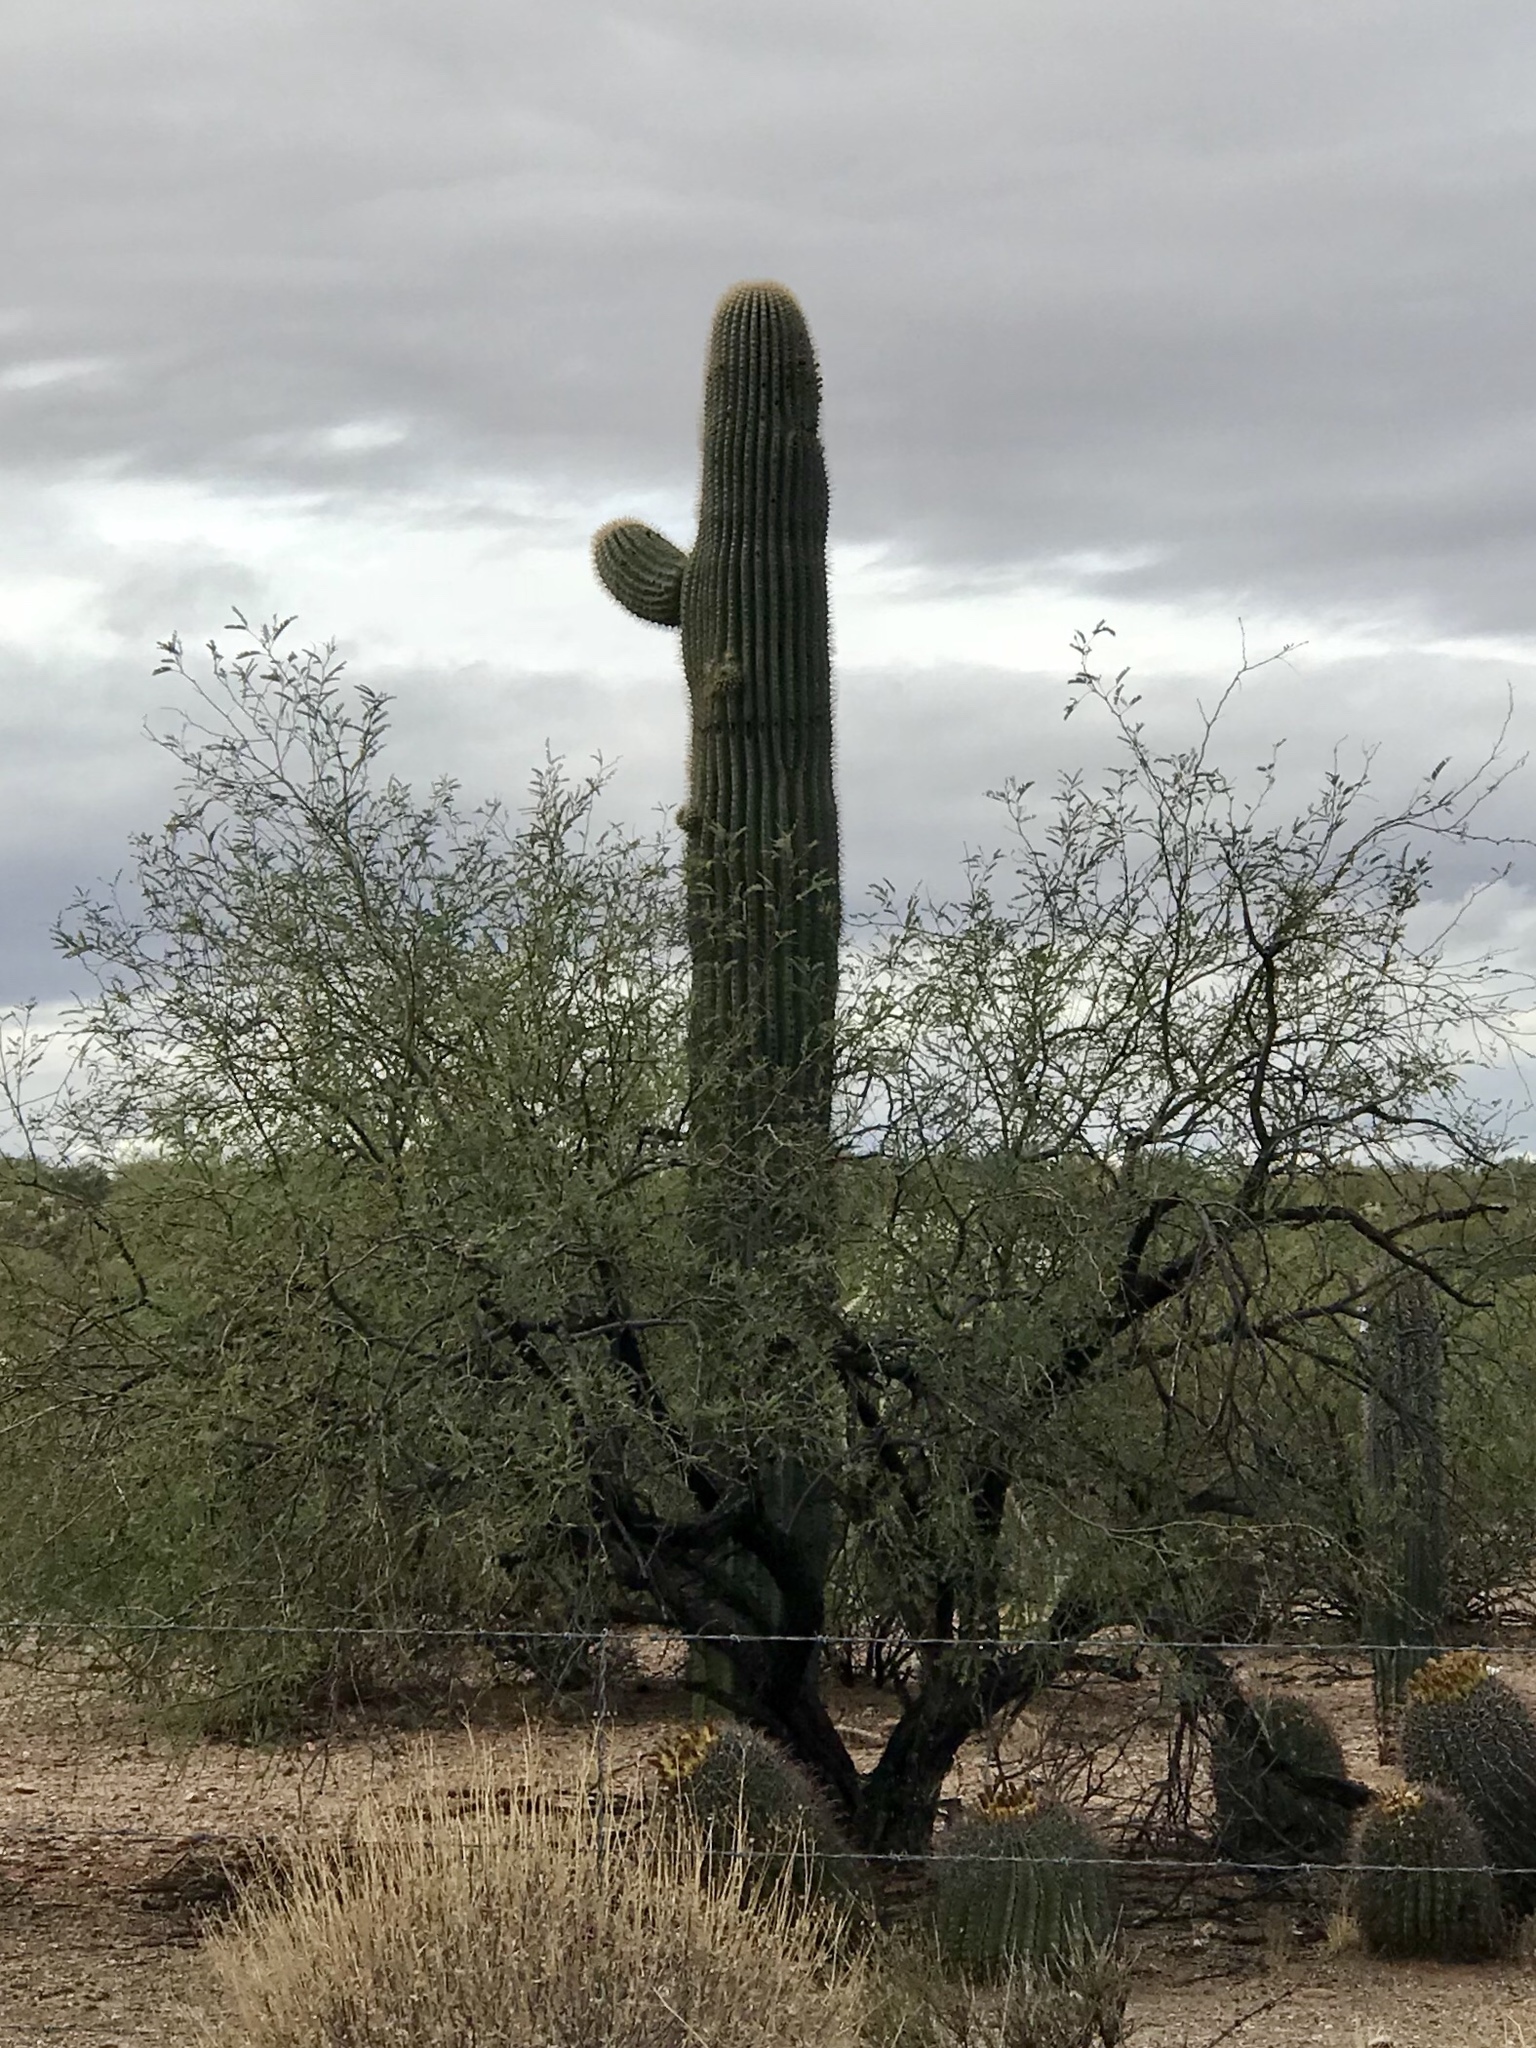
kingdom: Plantae
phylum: Tracheophyta
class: Magnoliopsida
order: Caryophyllales
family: Cactaceae
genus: Carnegiea
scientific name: Carnegiea gigantea
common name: Saguaro
